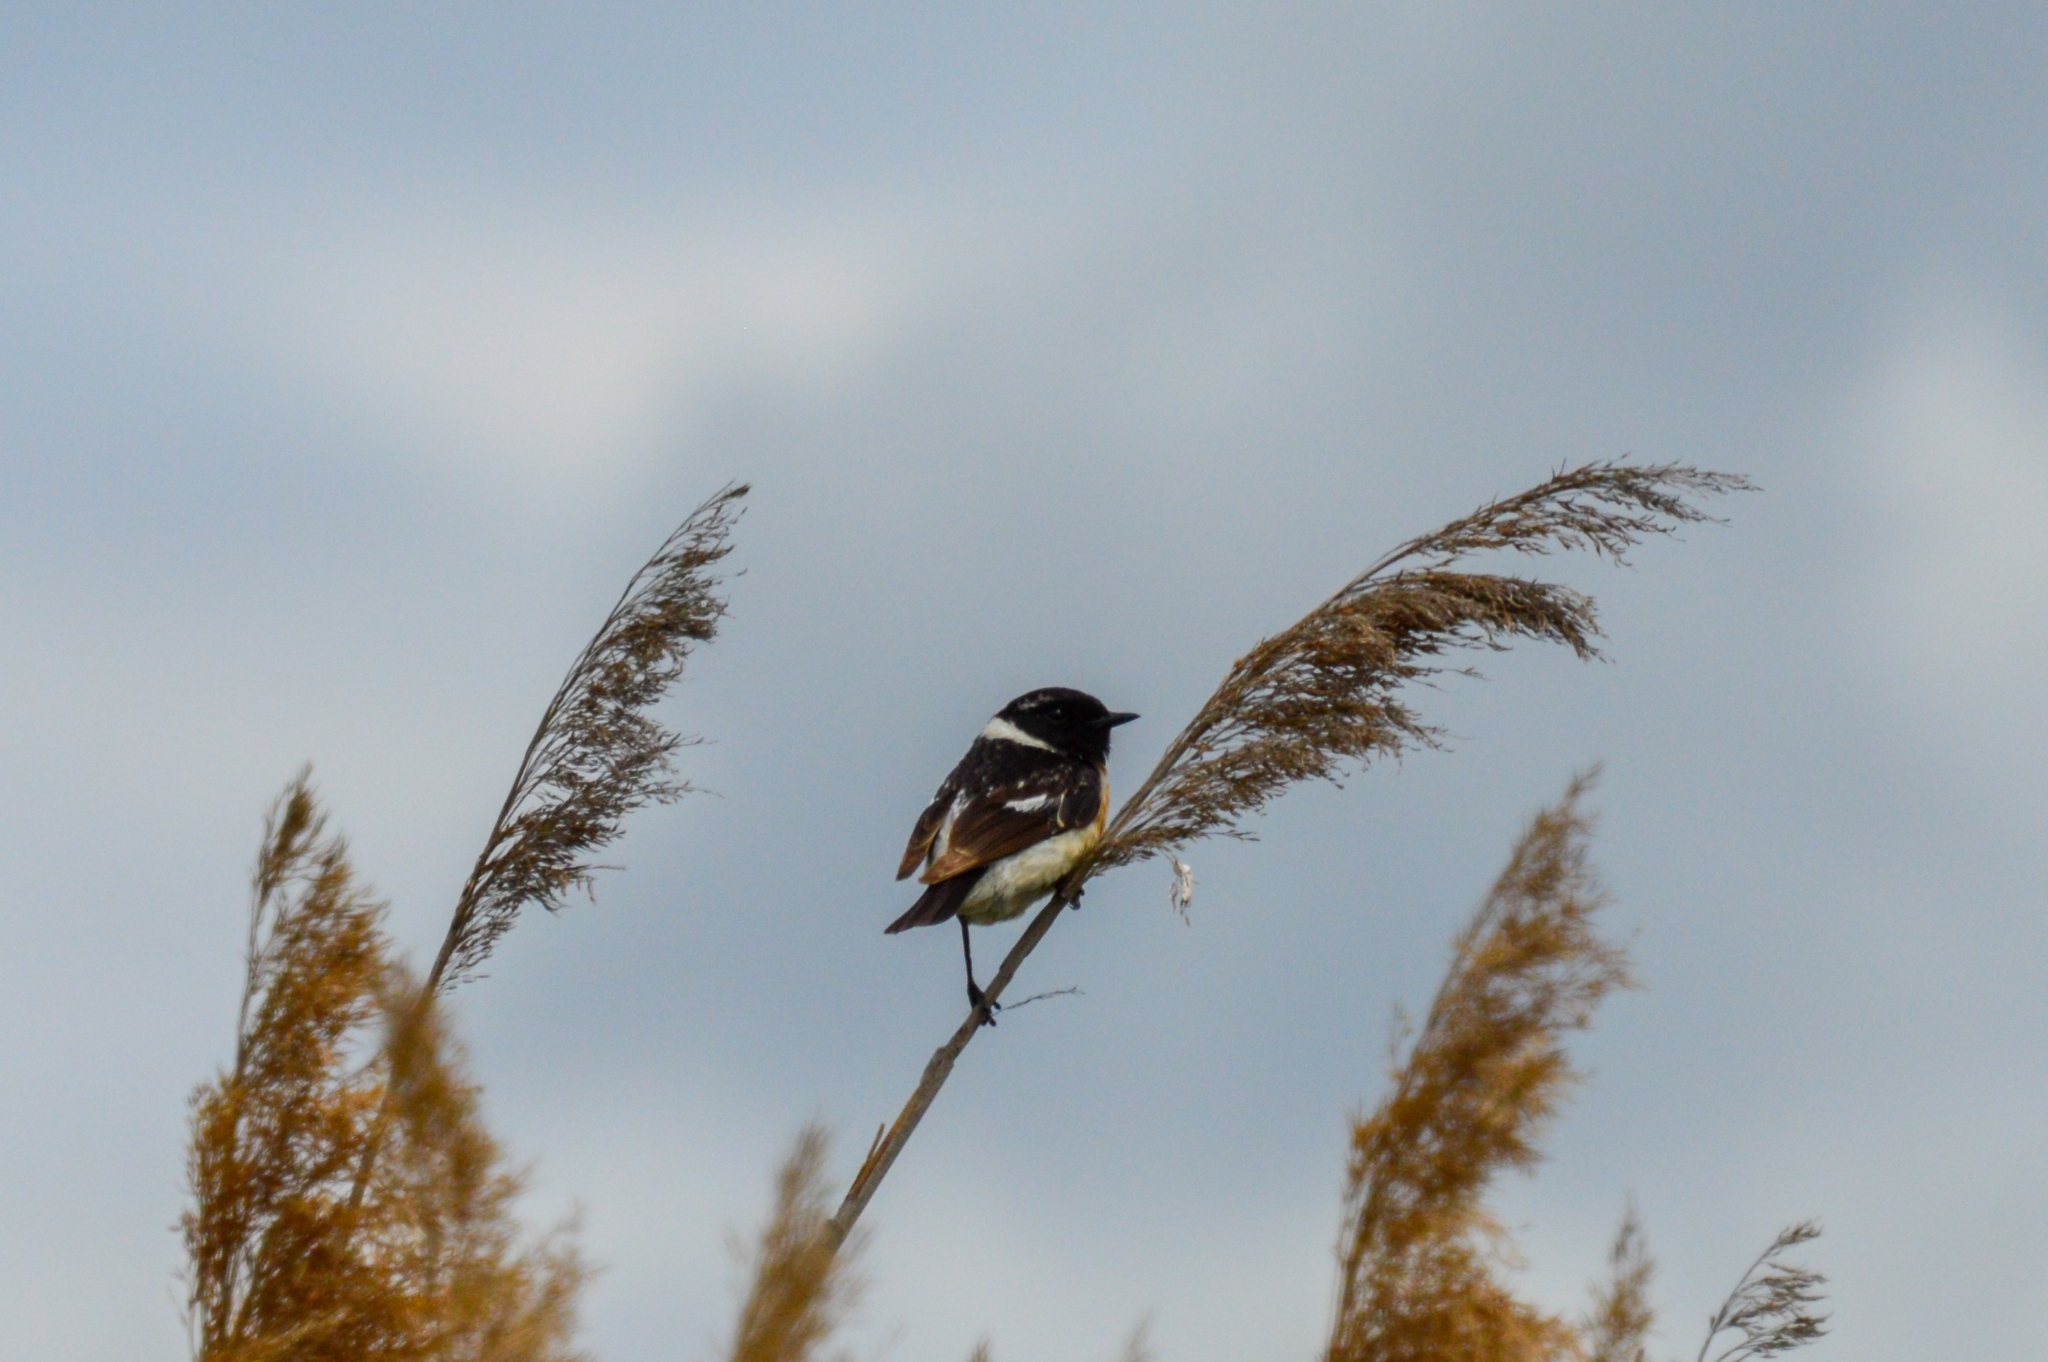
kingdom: Animalia
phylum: Chordata
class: Aves
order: Passeriformes
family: Muscicapidae
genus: Saxicola
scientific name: Saxicola maurus
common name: Siberian stonechat
